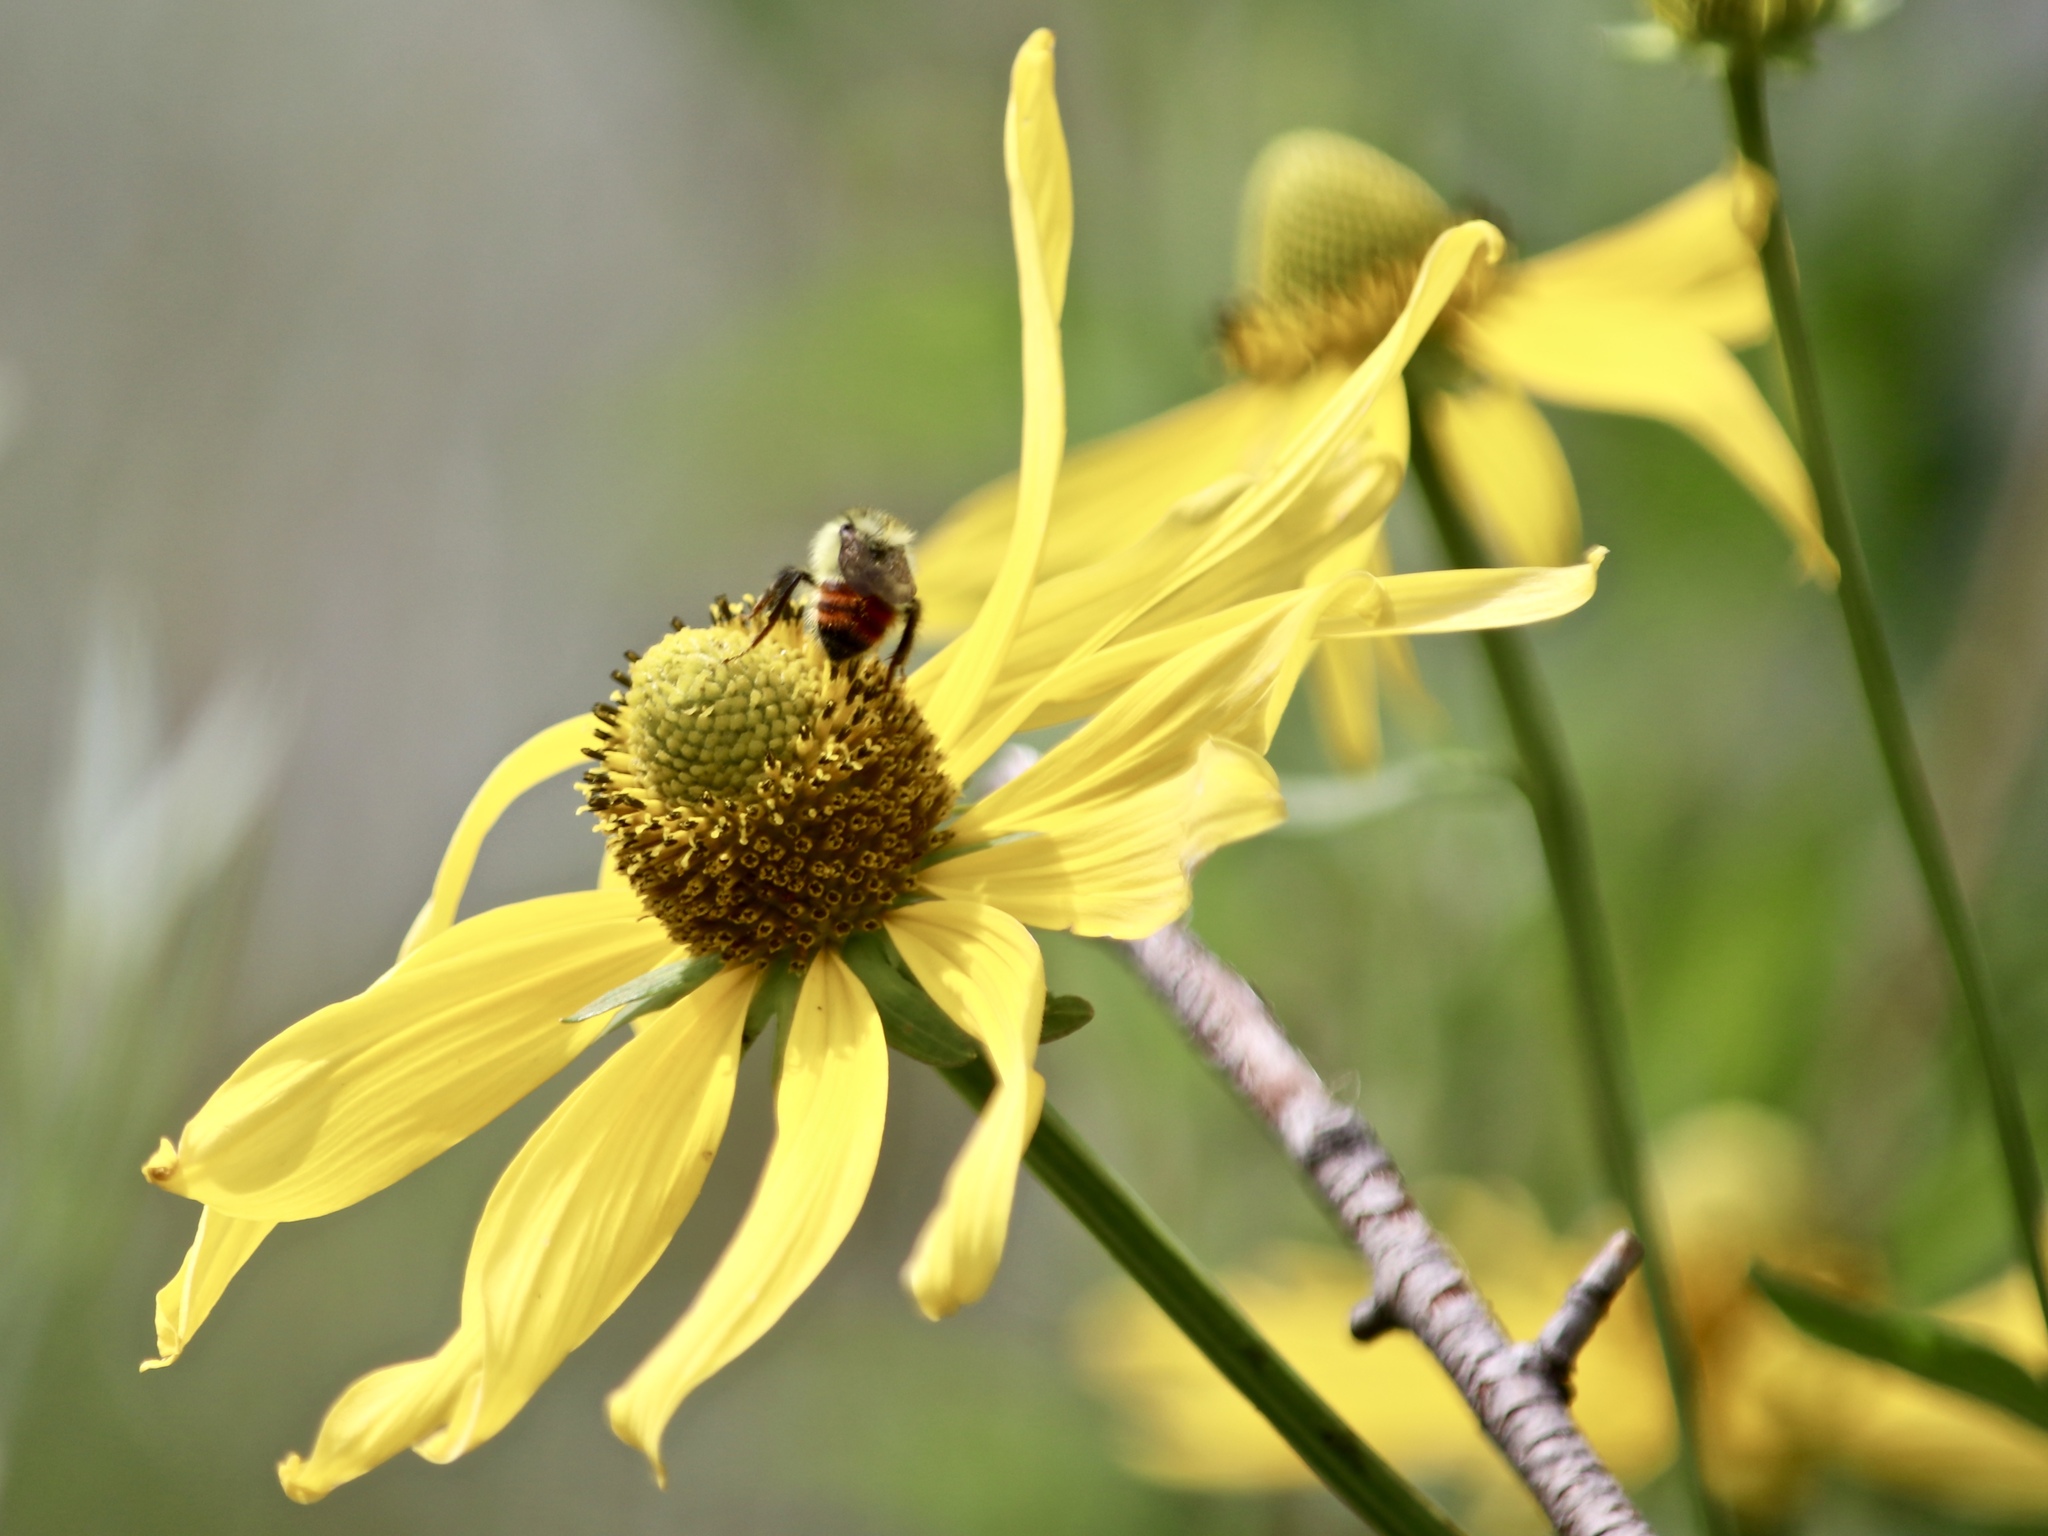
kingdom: Animalia
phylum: Arthropoda
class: Insecta
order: Hymenoptera
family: Apidae
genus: Bombus
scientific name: Bombus centralis
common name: Central bumble bee
